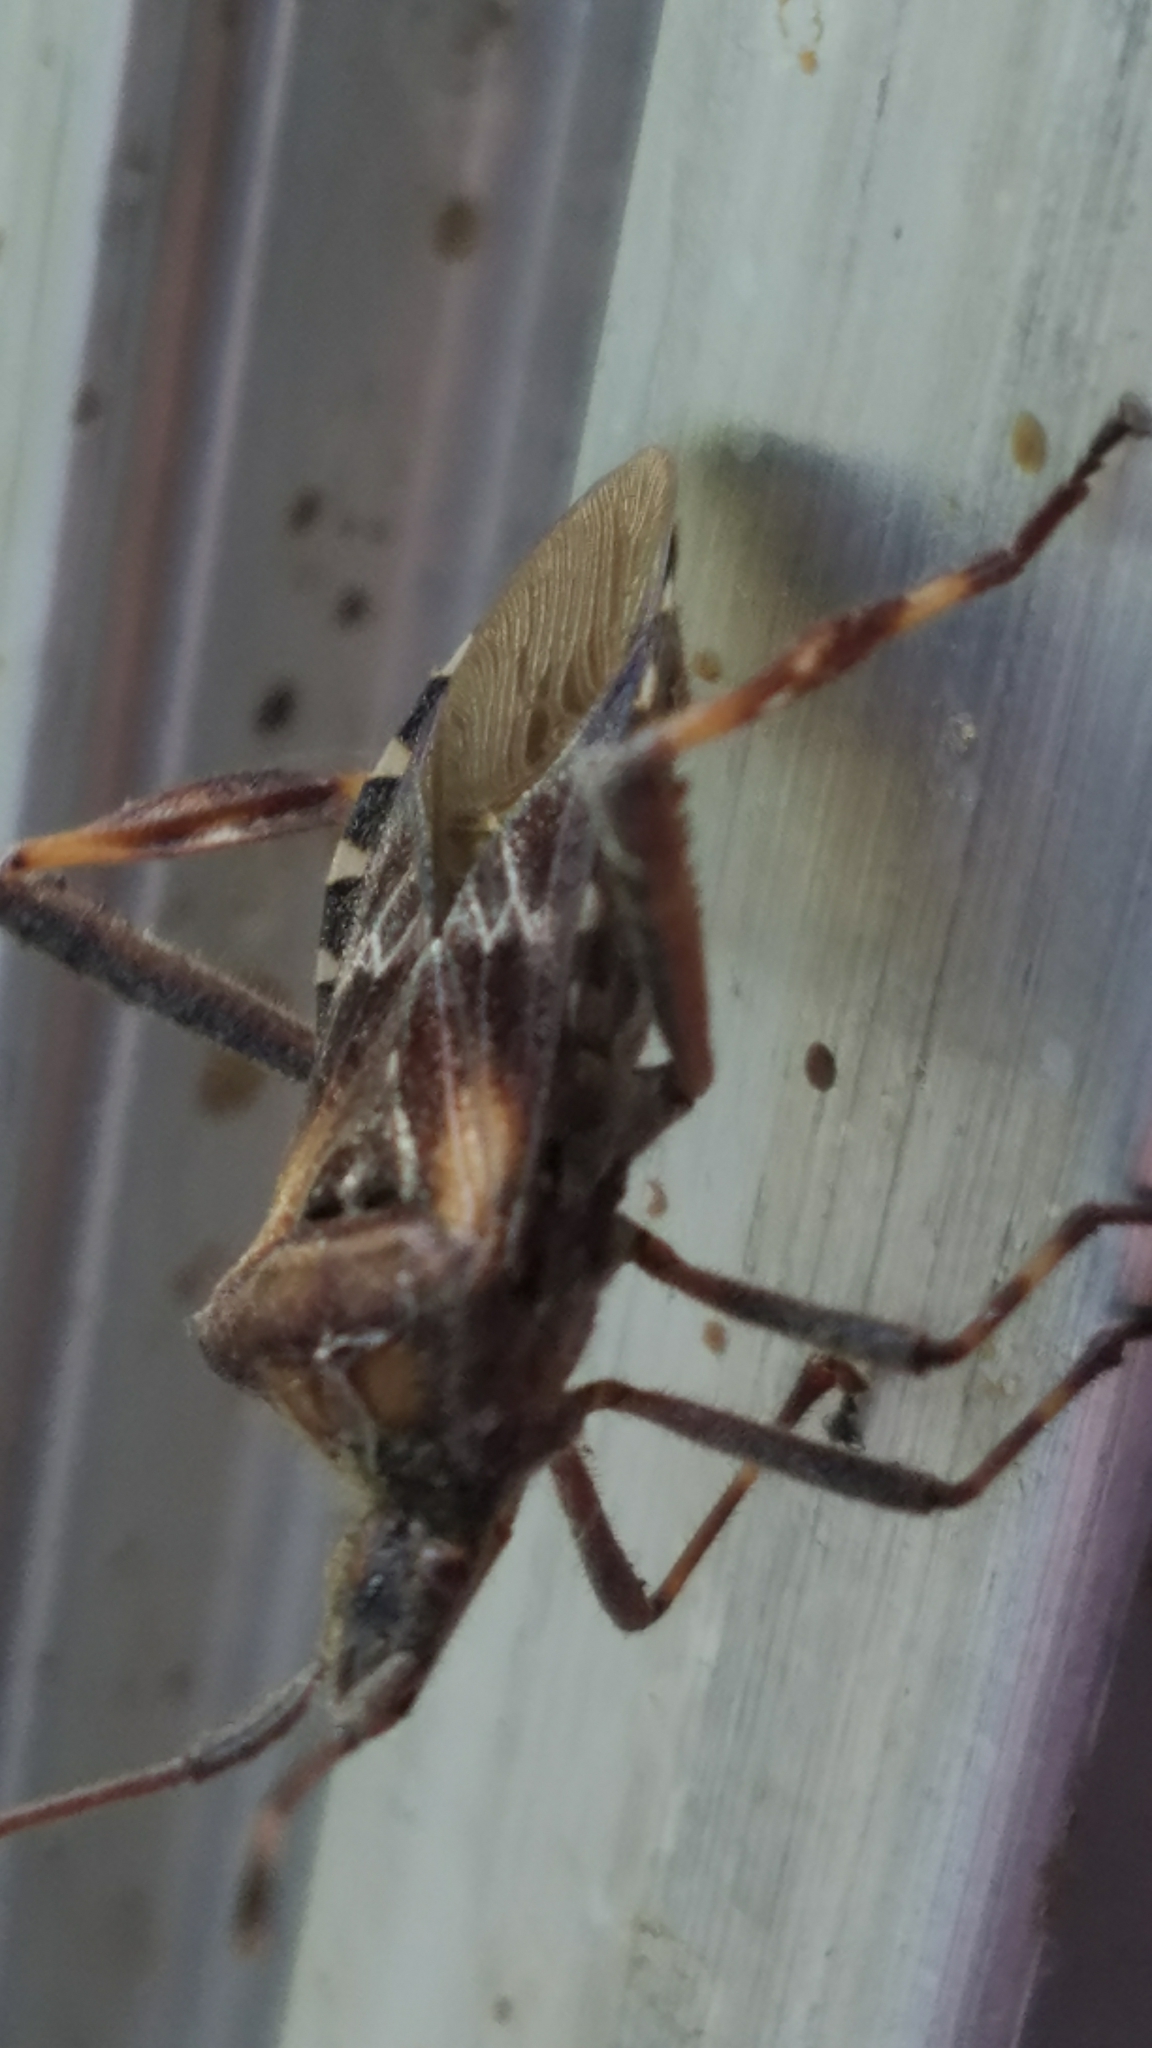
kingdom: Animalia
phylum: Arthropoda
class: Insecta
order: Hemiptera
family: Coreidae
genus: Leptoglossus
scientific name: Leptoglossus occidentalis
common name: Western conifer-seed bug
